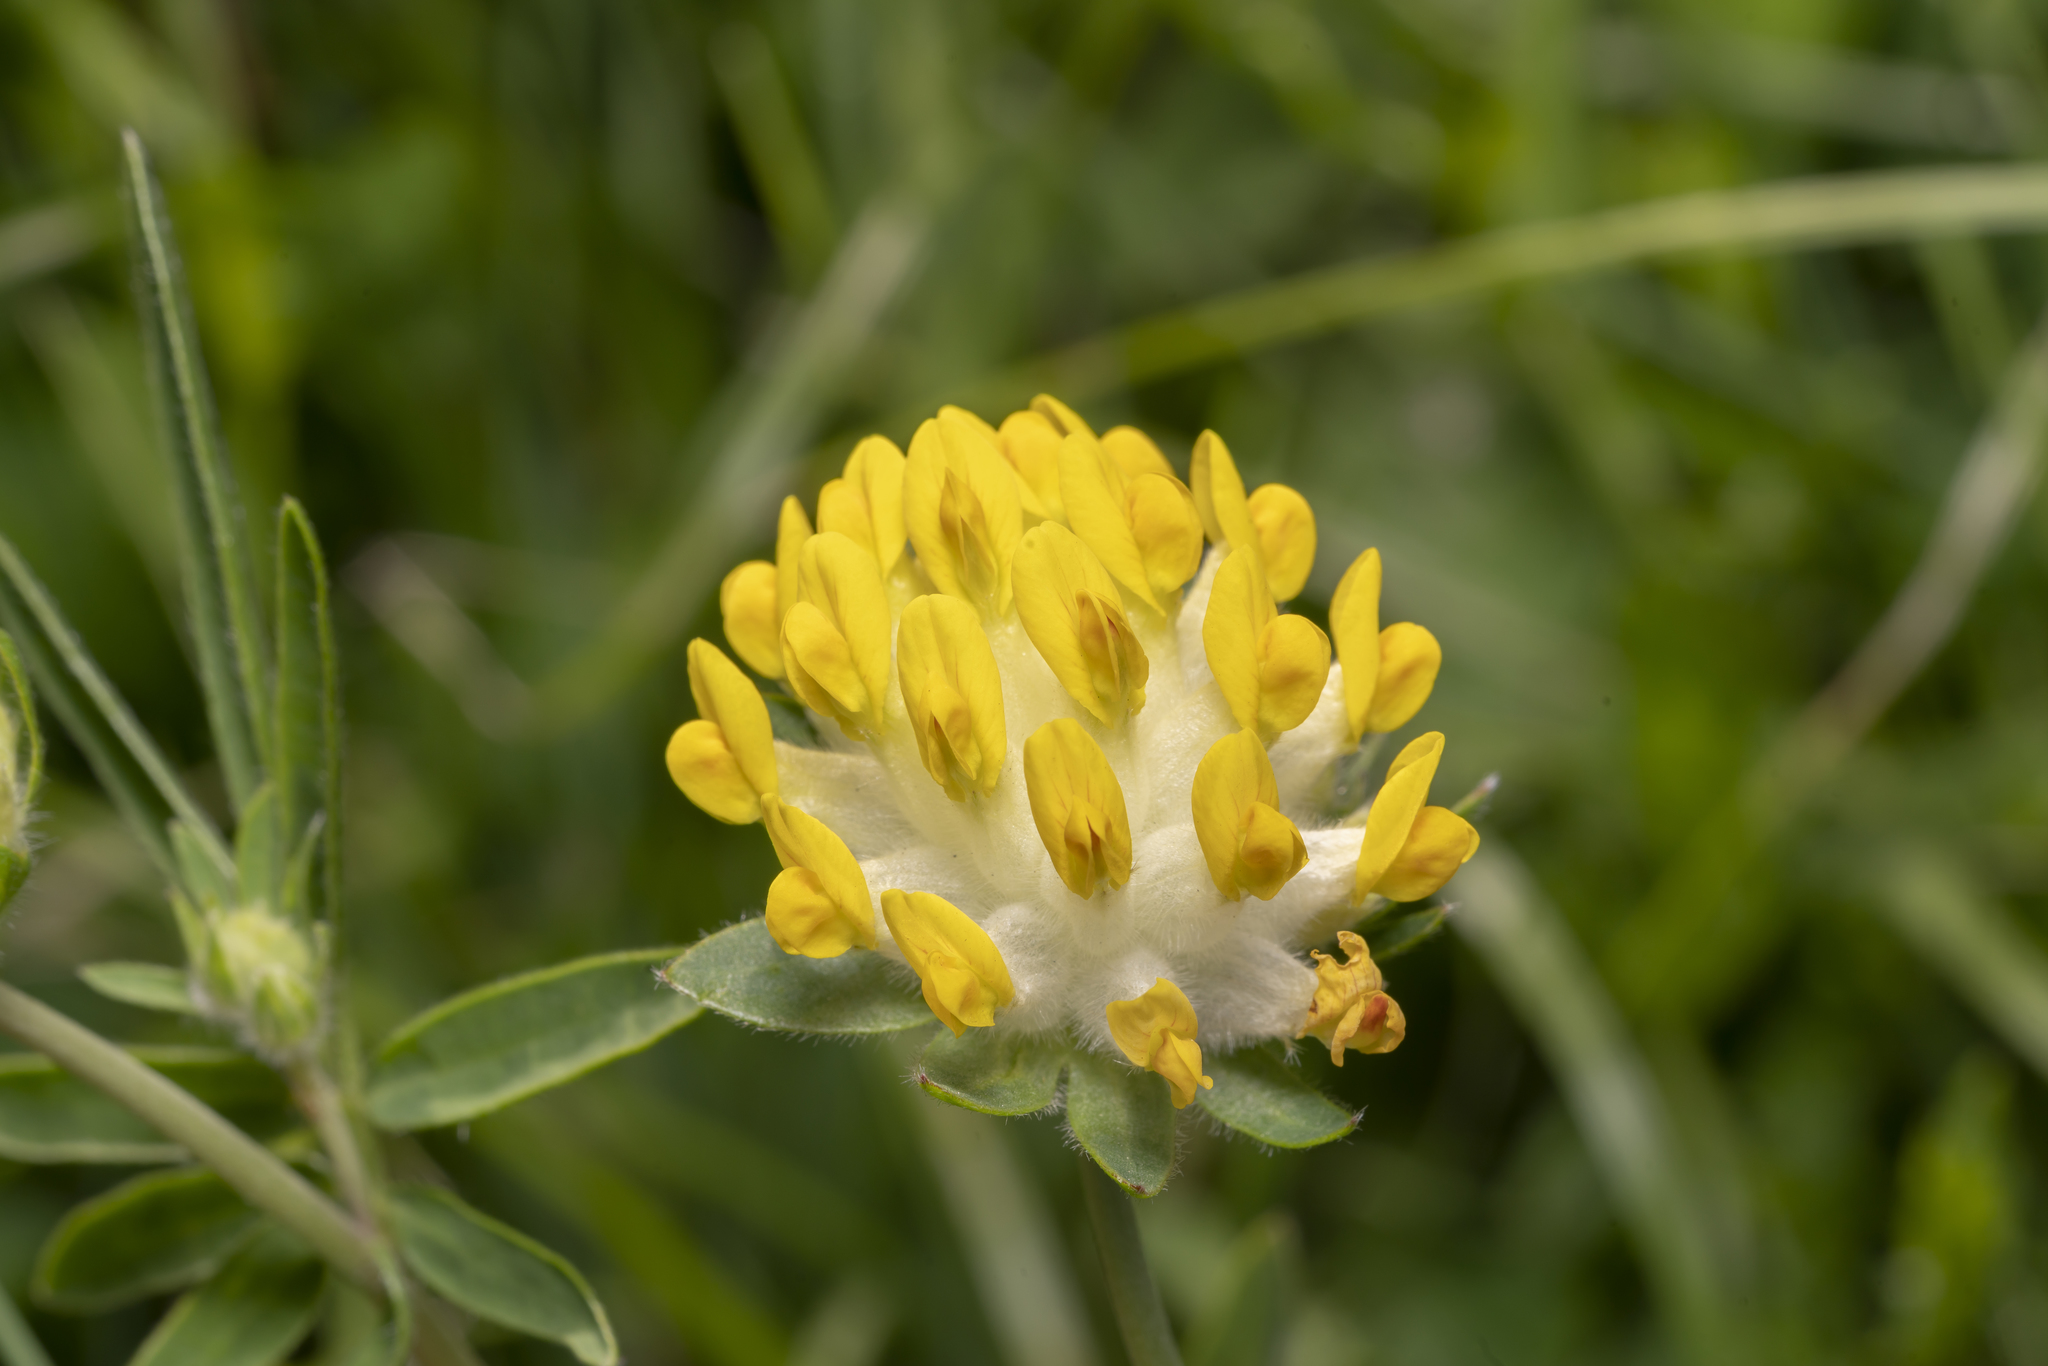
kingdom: Plantae
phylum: Tracheophyta
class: Magnoliopsida
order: Fabales
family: Fabaceae
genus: Anthyllis
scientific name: Anthyllis vulneraria
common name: Kidney vetch
